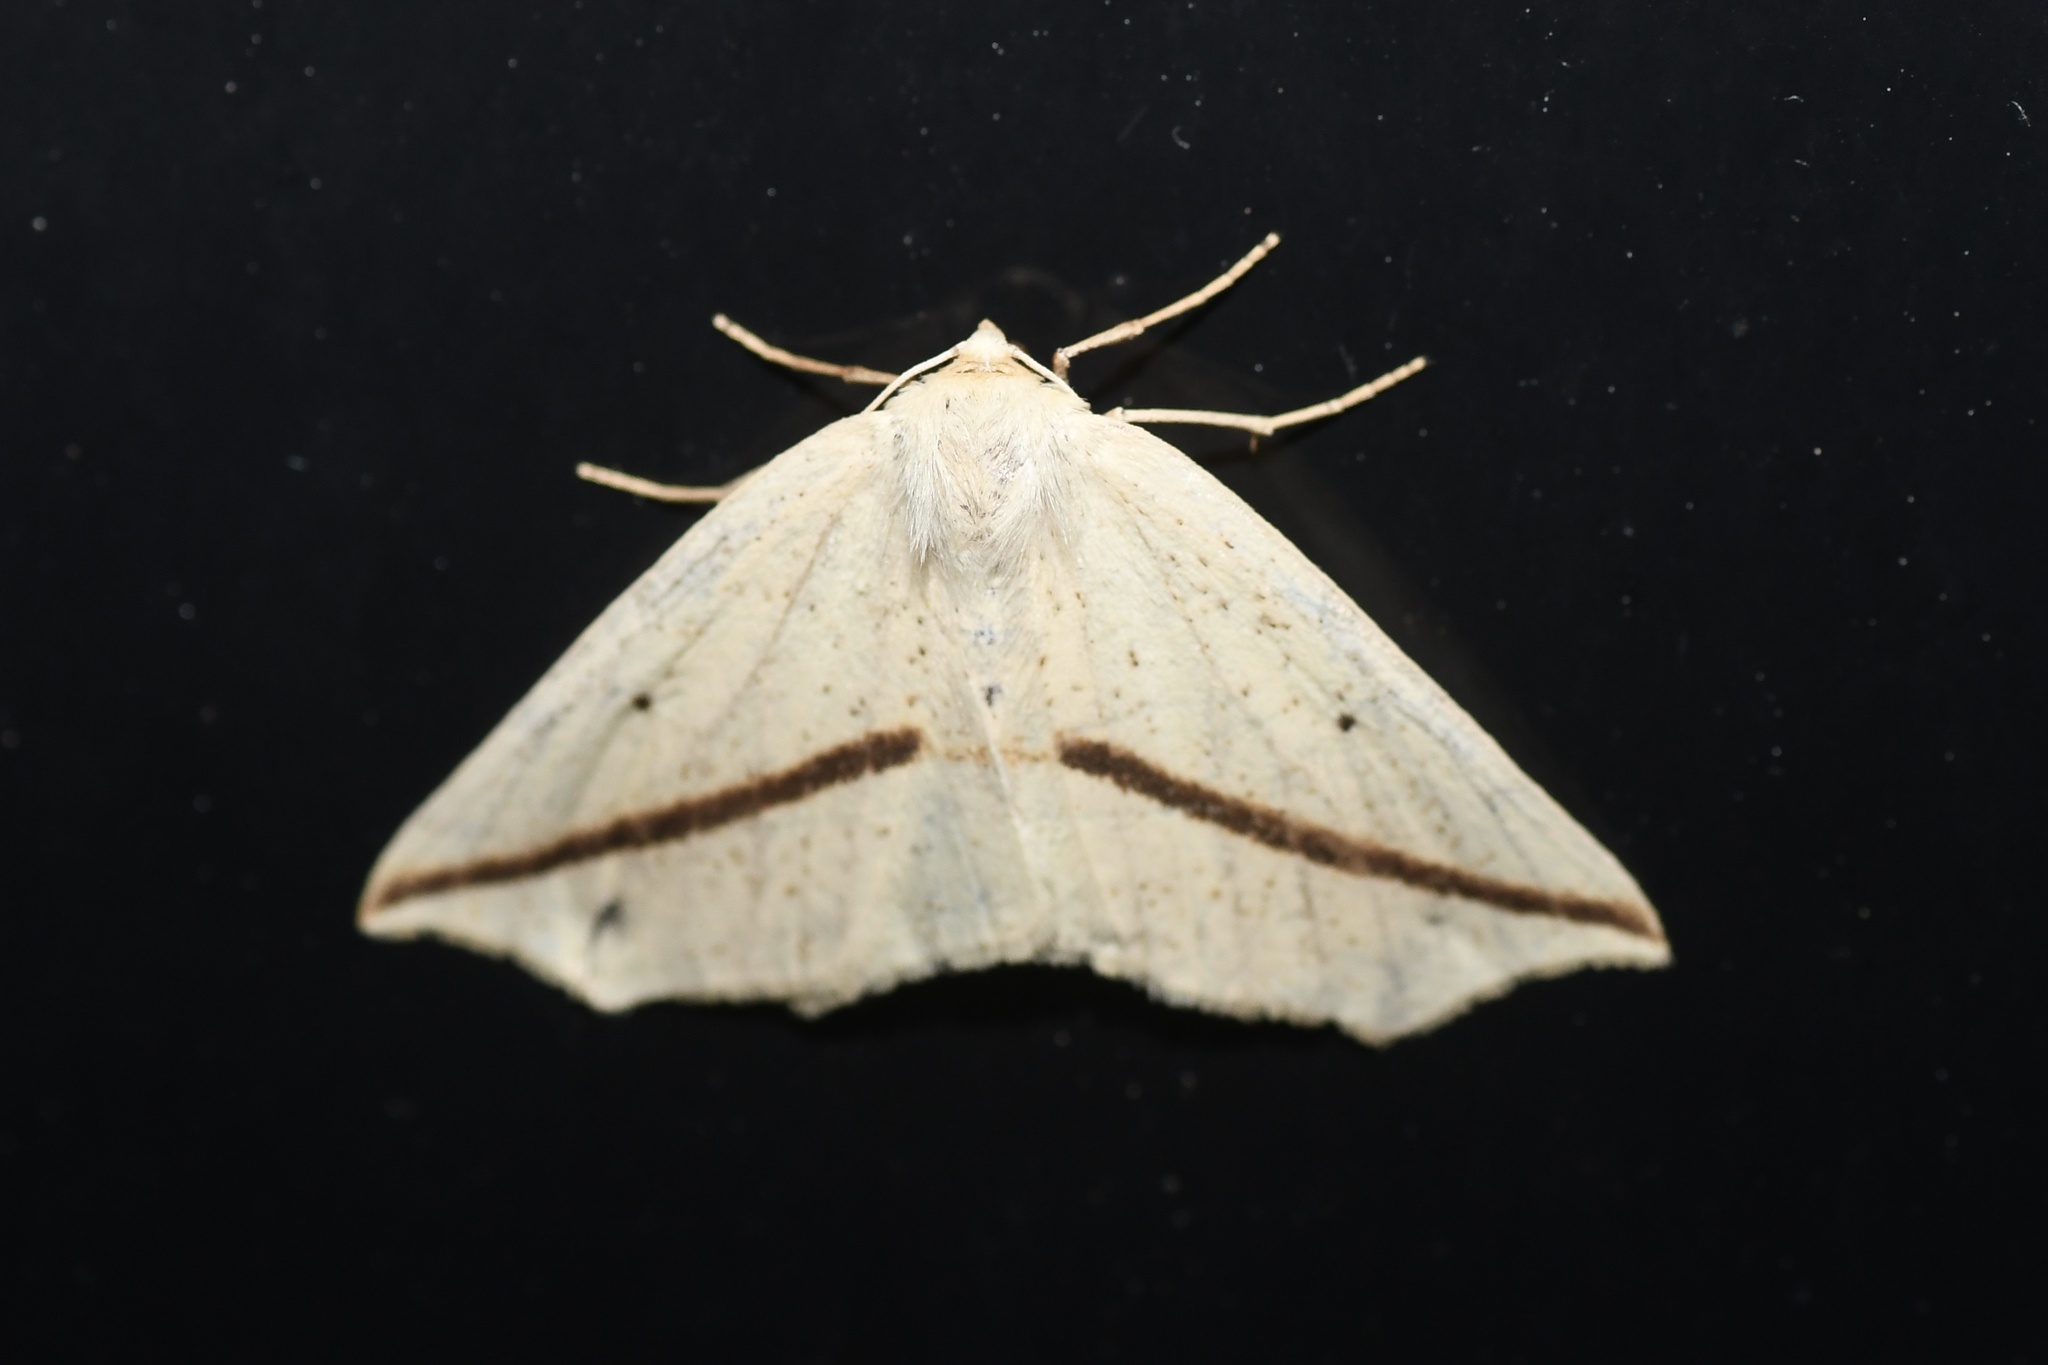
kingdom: Animalia
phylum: Arthropoda
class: Insecta
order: Lepidoptera
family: Geometridae
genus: Tetracis
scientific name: Tetracis crocallata
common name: Yellow slant-line
